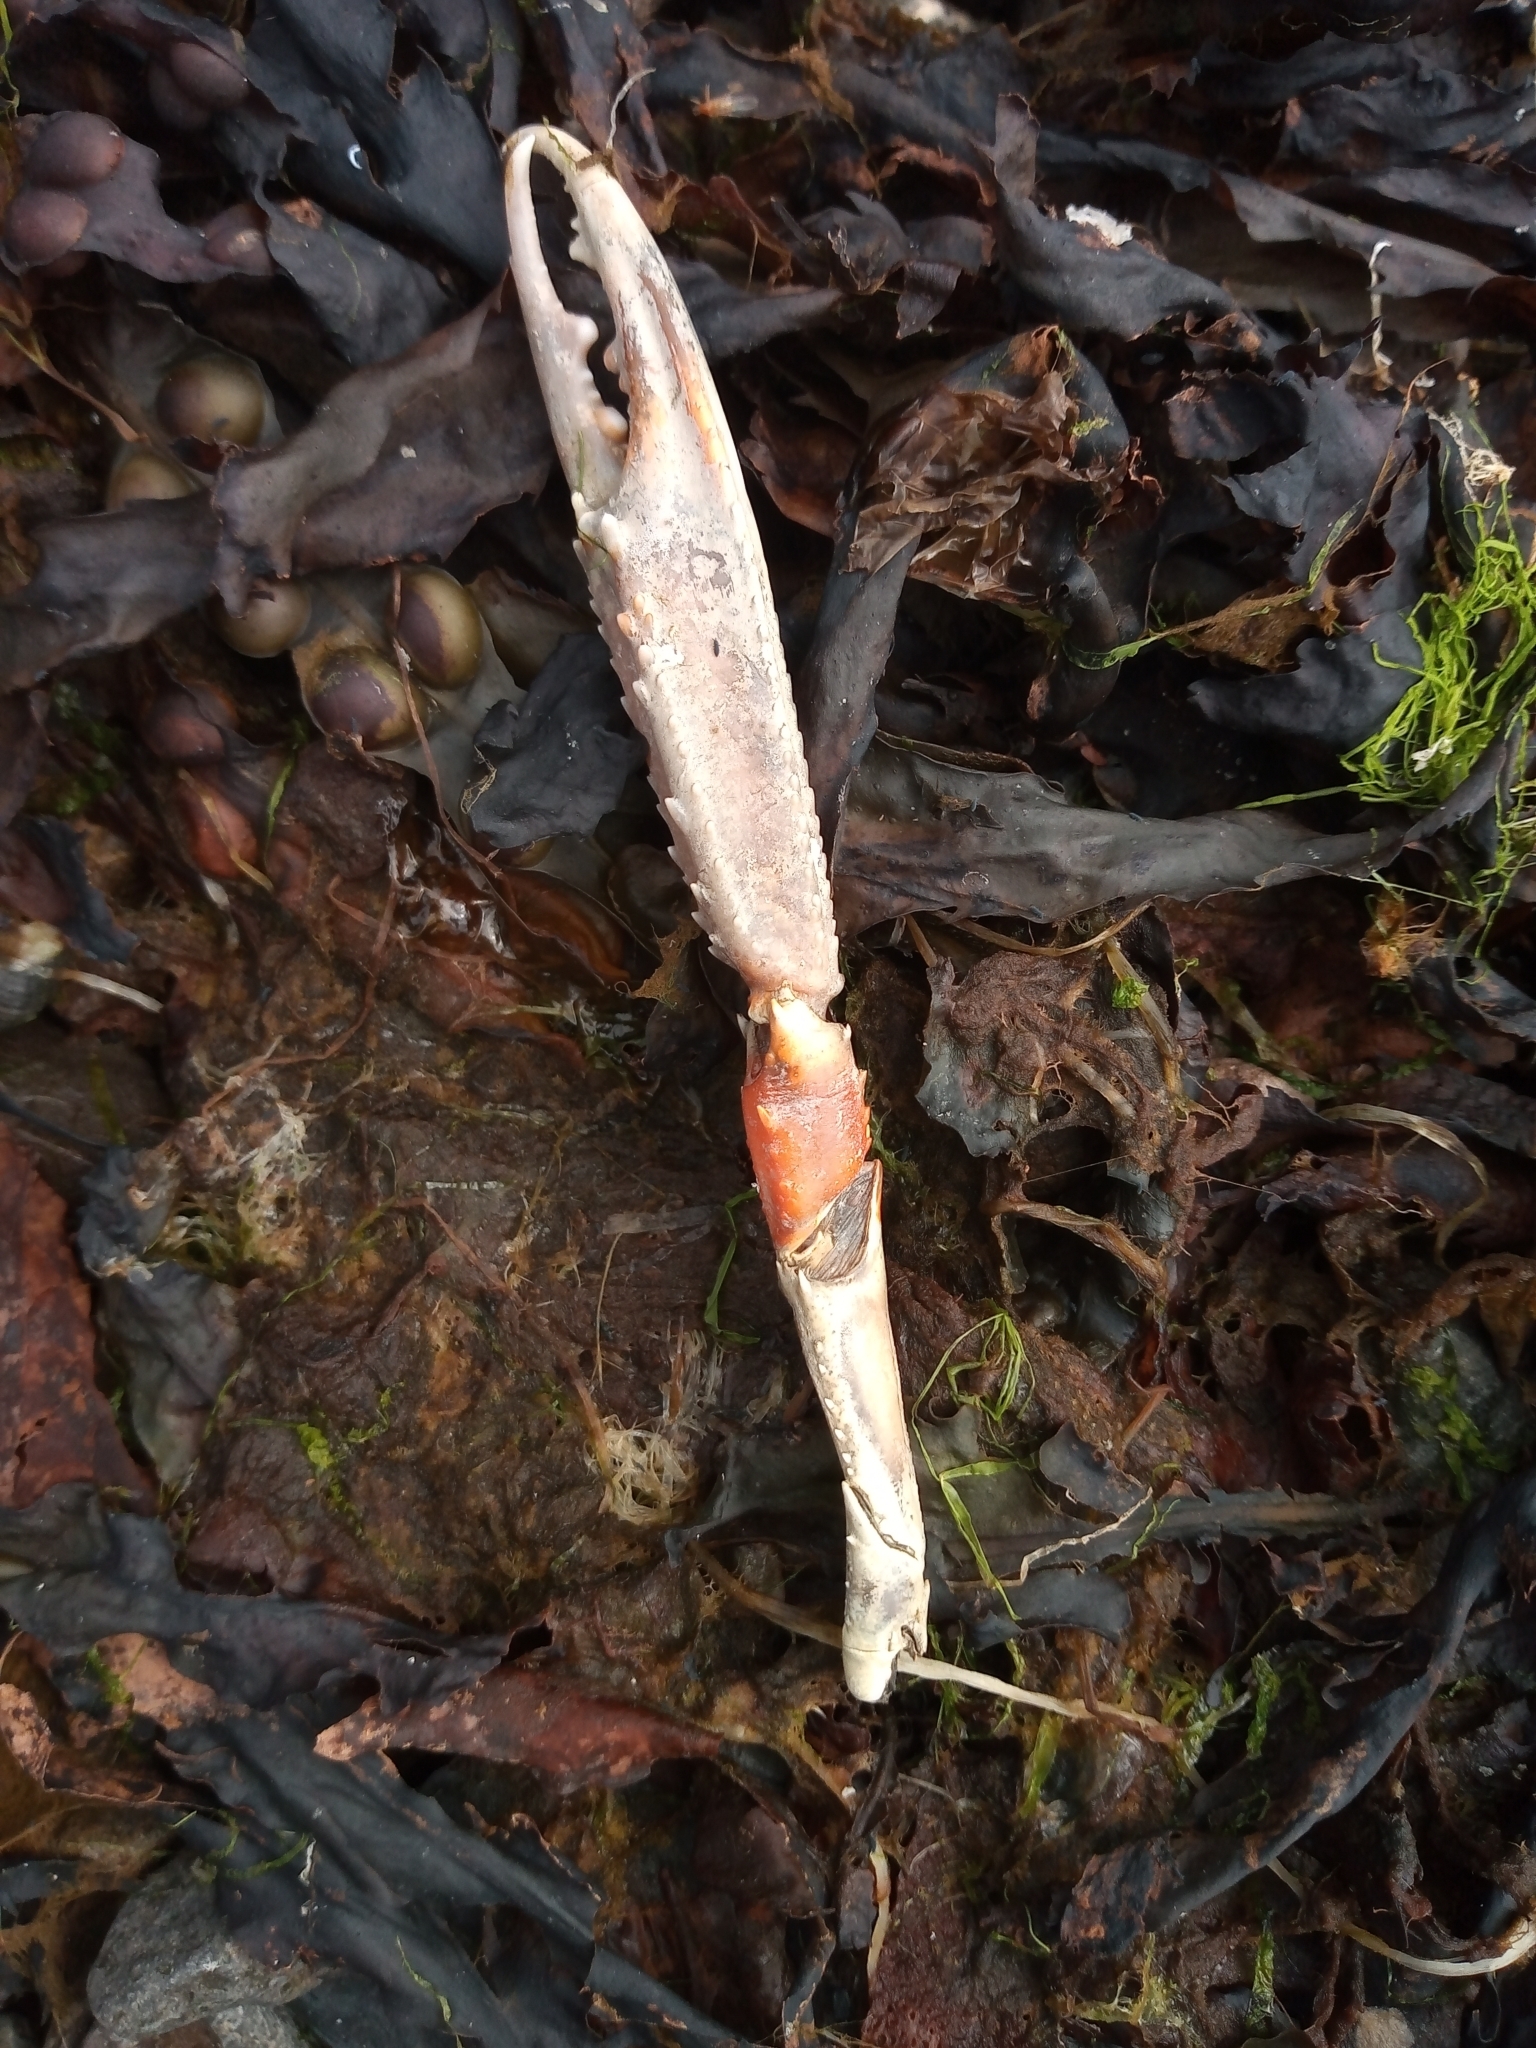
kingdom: Animalia
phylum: Arthropoda
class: Malacostraca
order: Decapoda
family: Nephropidae
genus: Nephrops
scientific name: Nephrops norvegicus
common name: Norway lobster
